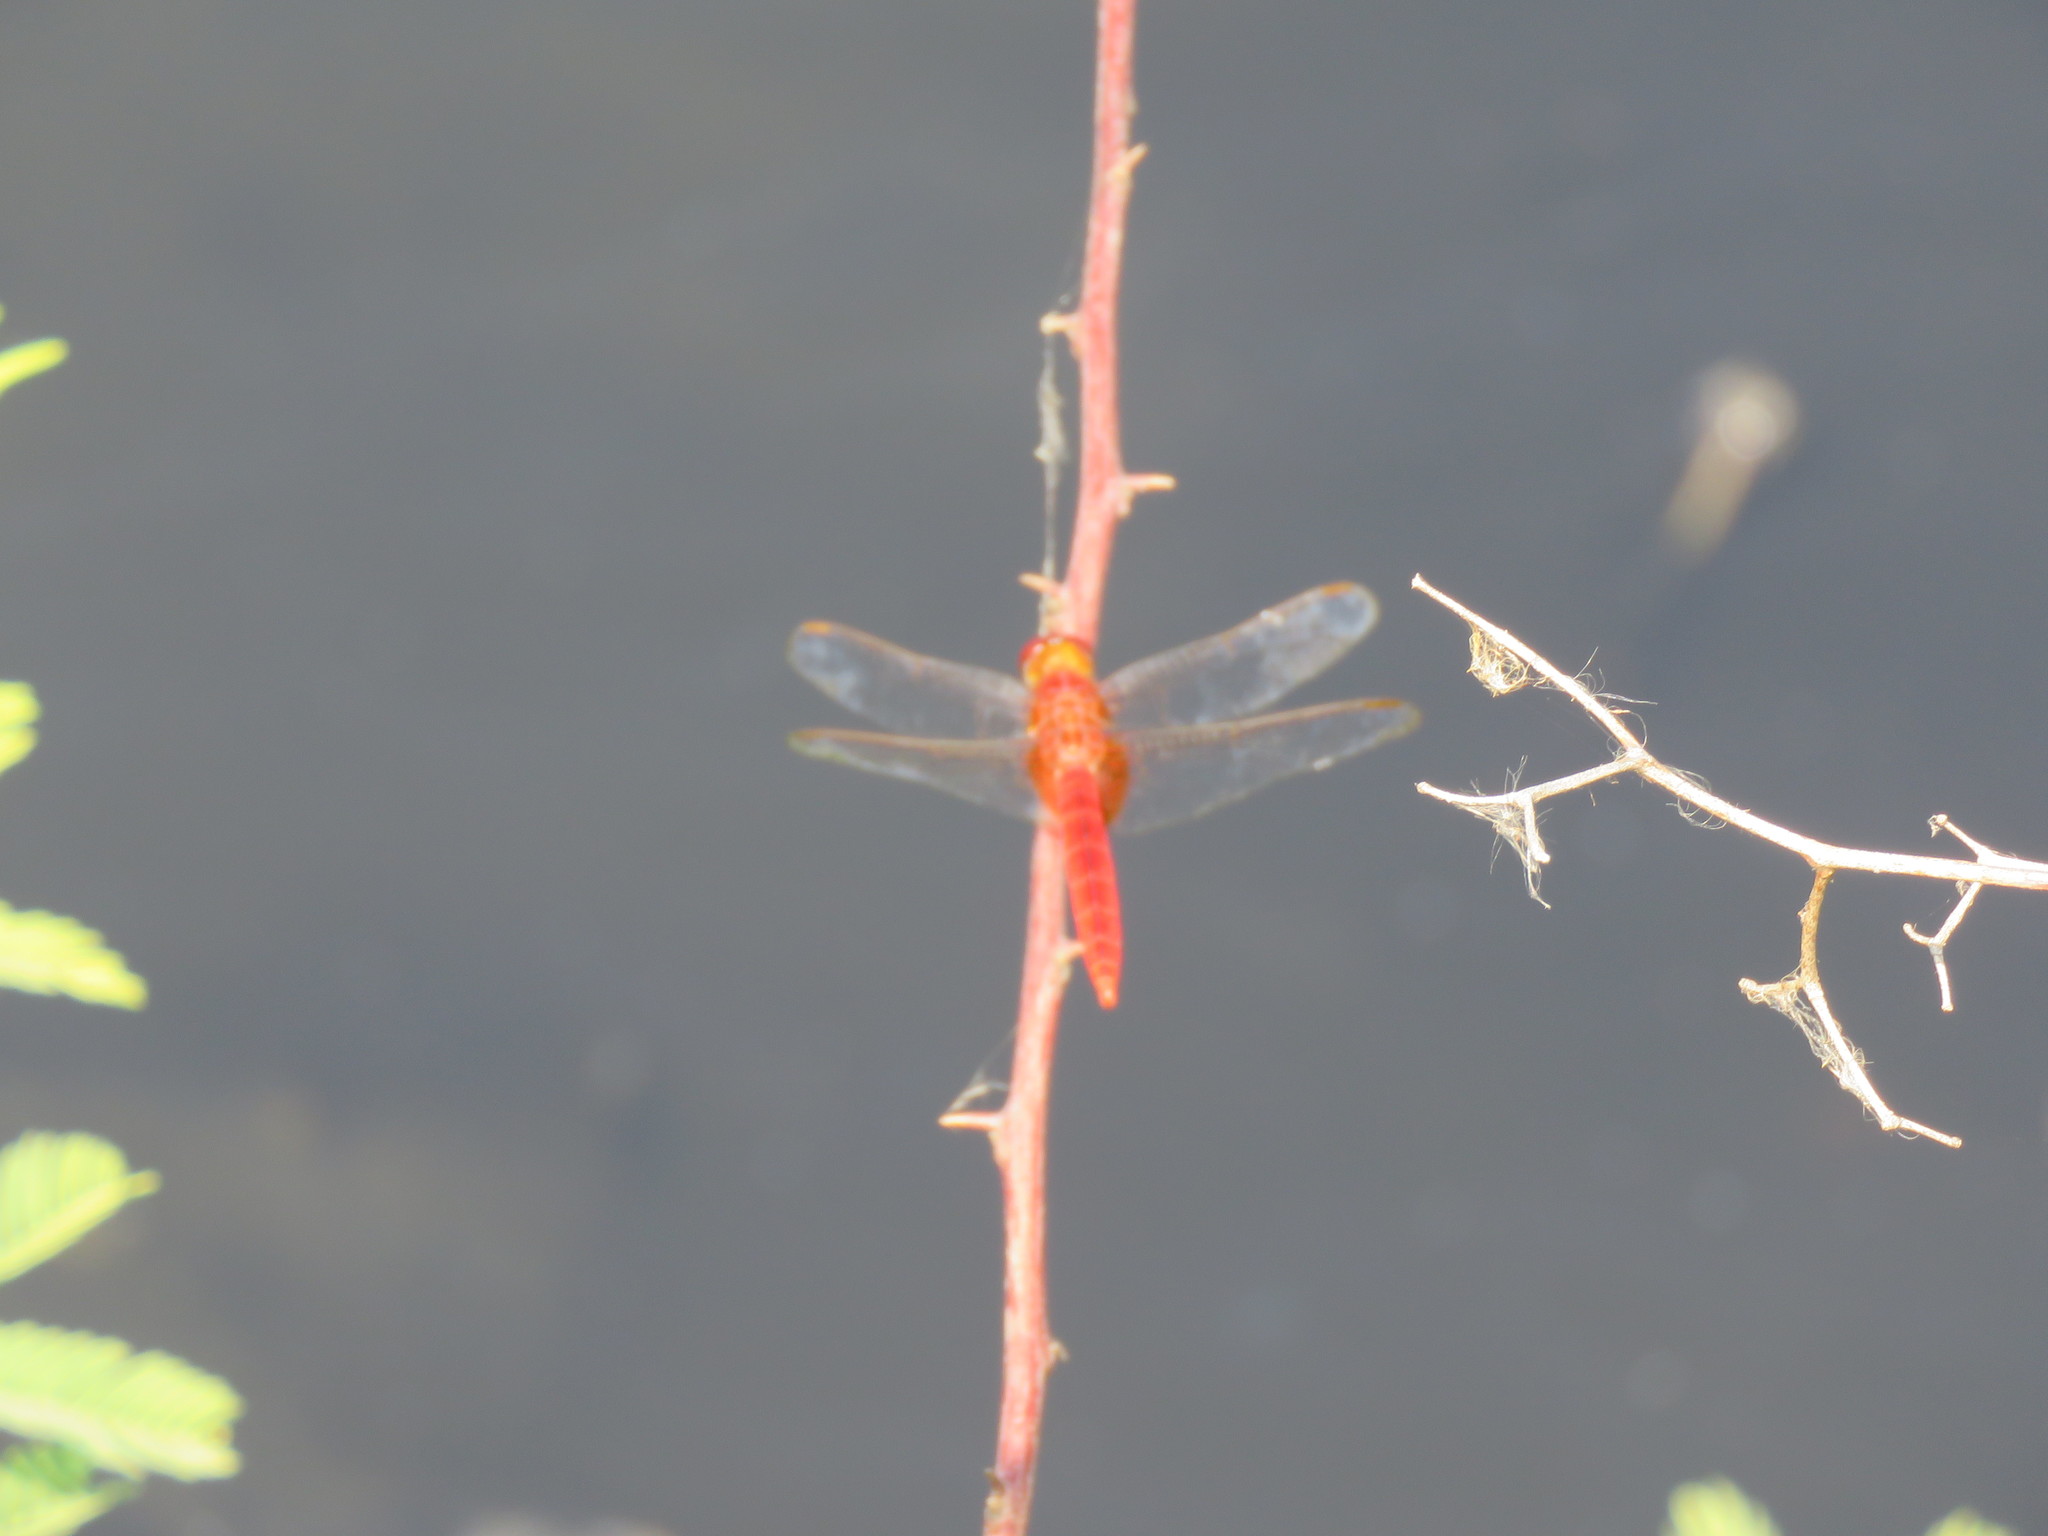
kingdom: Animalia
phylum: Arthropoda
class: Insecta
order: Odonata
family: Libellulidae
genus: Crocothemis
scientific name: Crocothemis servilia
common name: Scarlet skimmer
